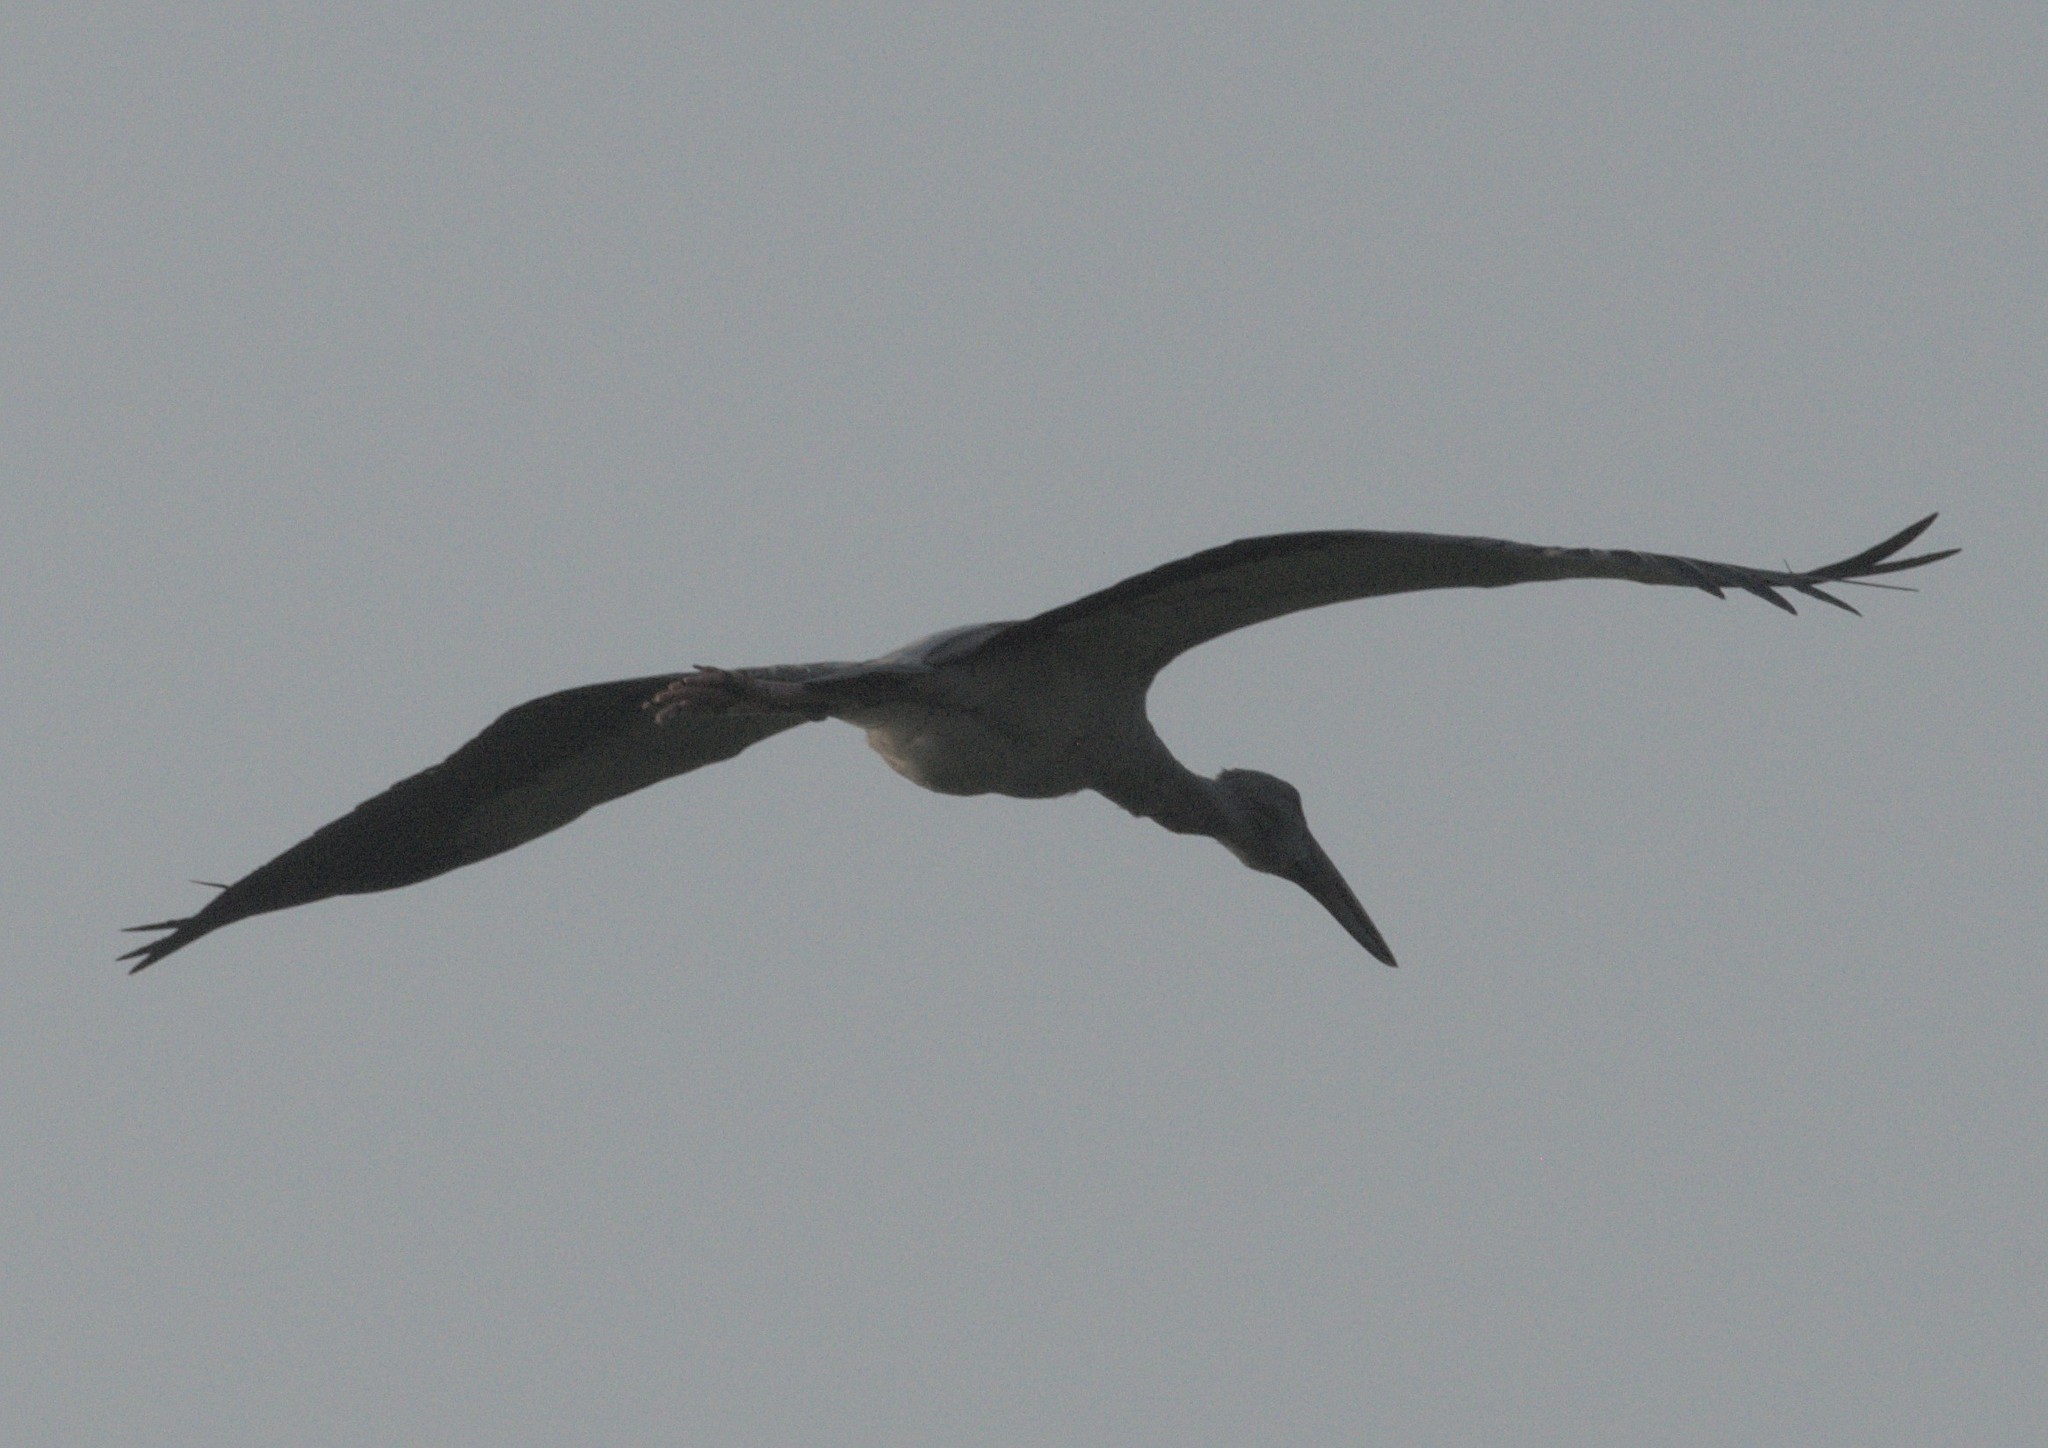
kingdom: Animalia
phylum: Chordata
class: Aves
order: Ciconiiformes
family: Ciconiidae
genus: Anastomus
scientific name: Anastomus oscitans
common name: Asian openbill
